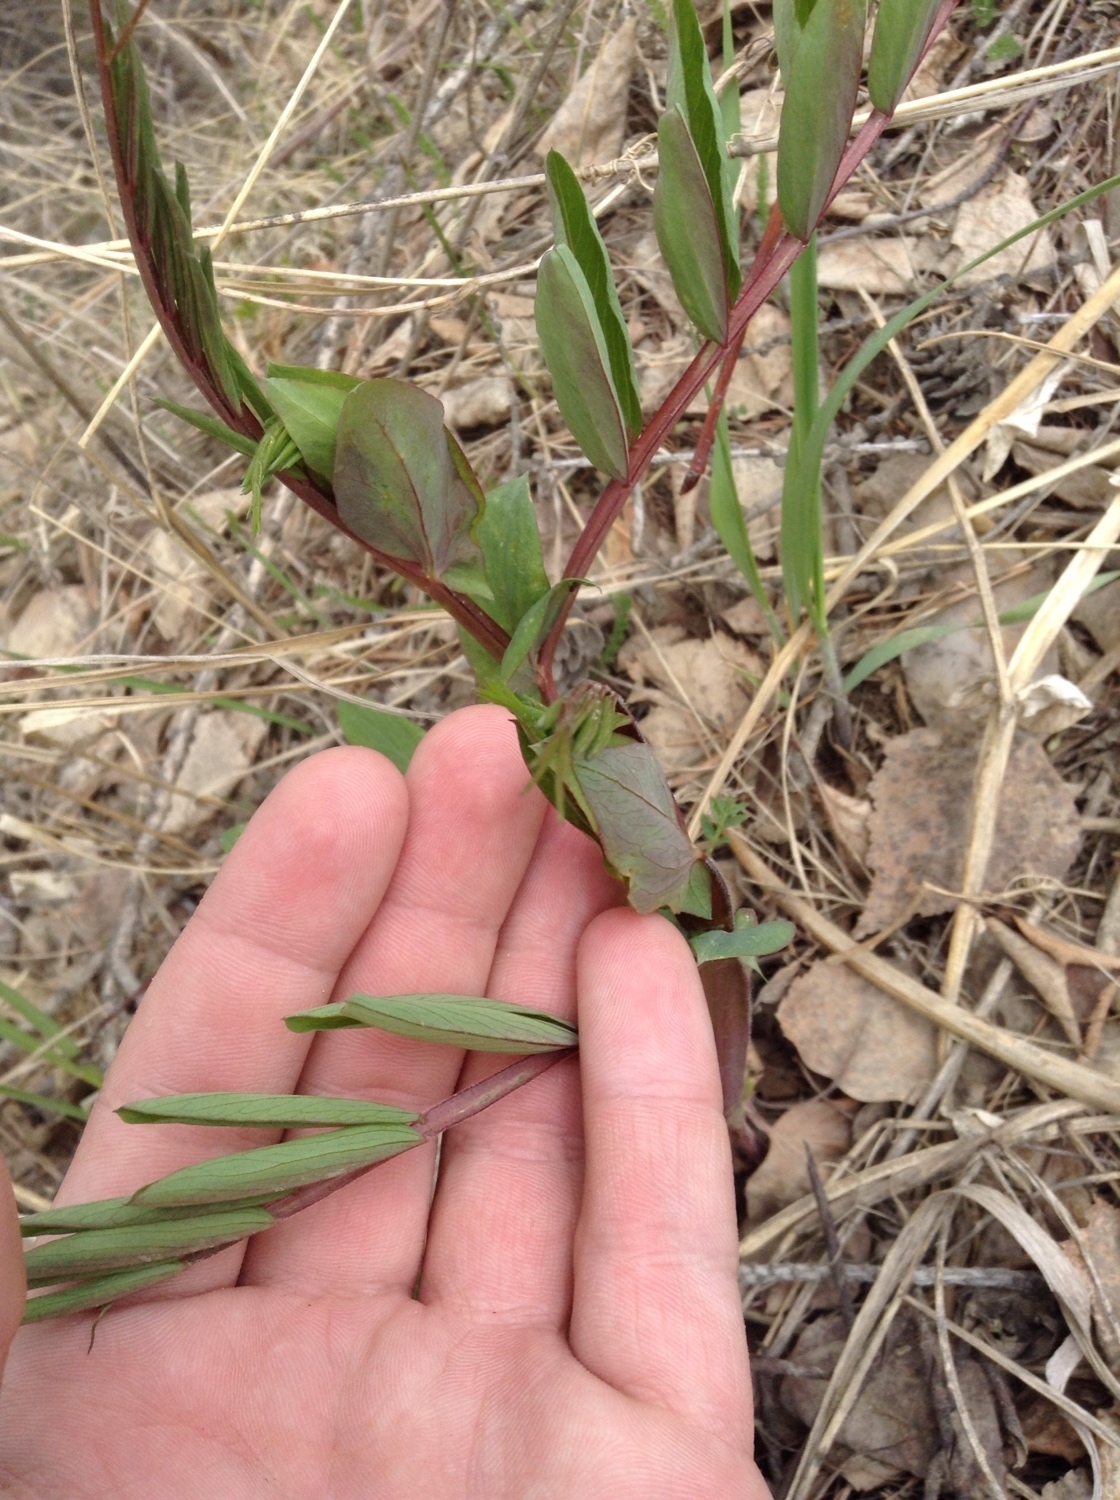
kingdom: Plantae
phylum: Tracheophyta
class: Magnoliopsida
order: Fabales
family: Fabaceae
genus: Lathyrus
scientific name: Lathyrus pisiformis
